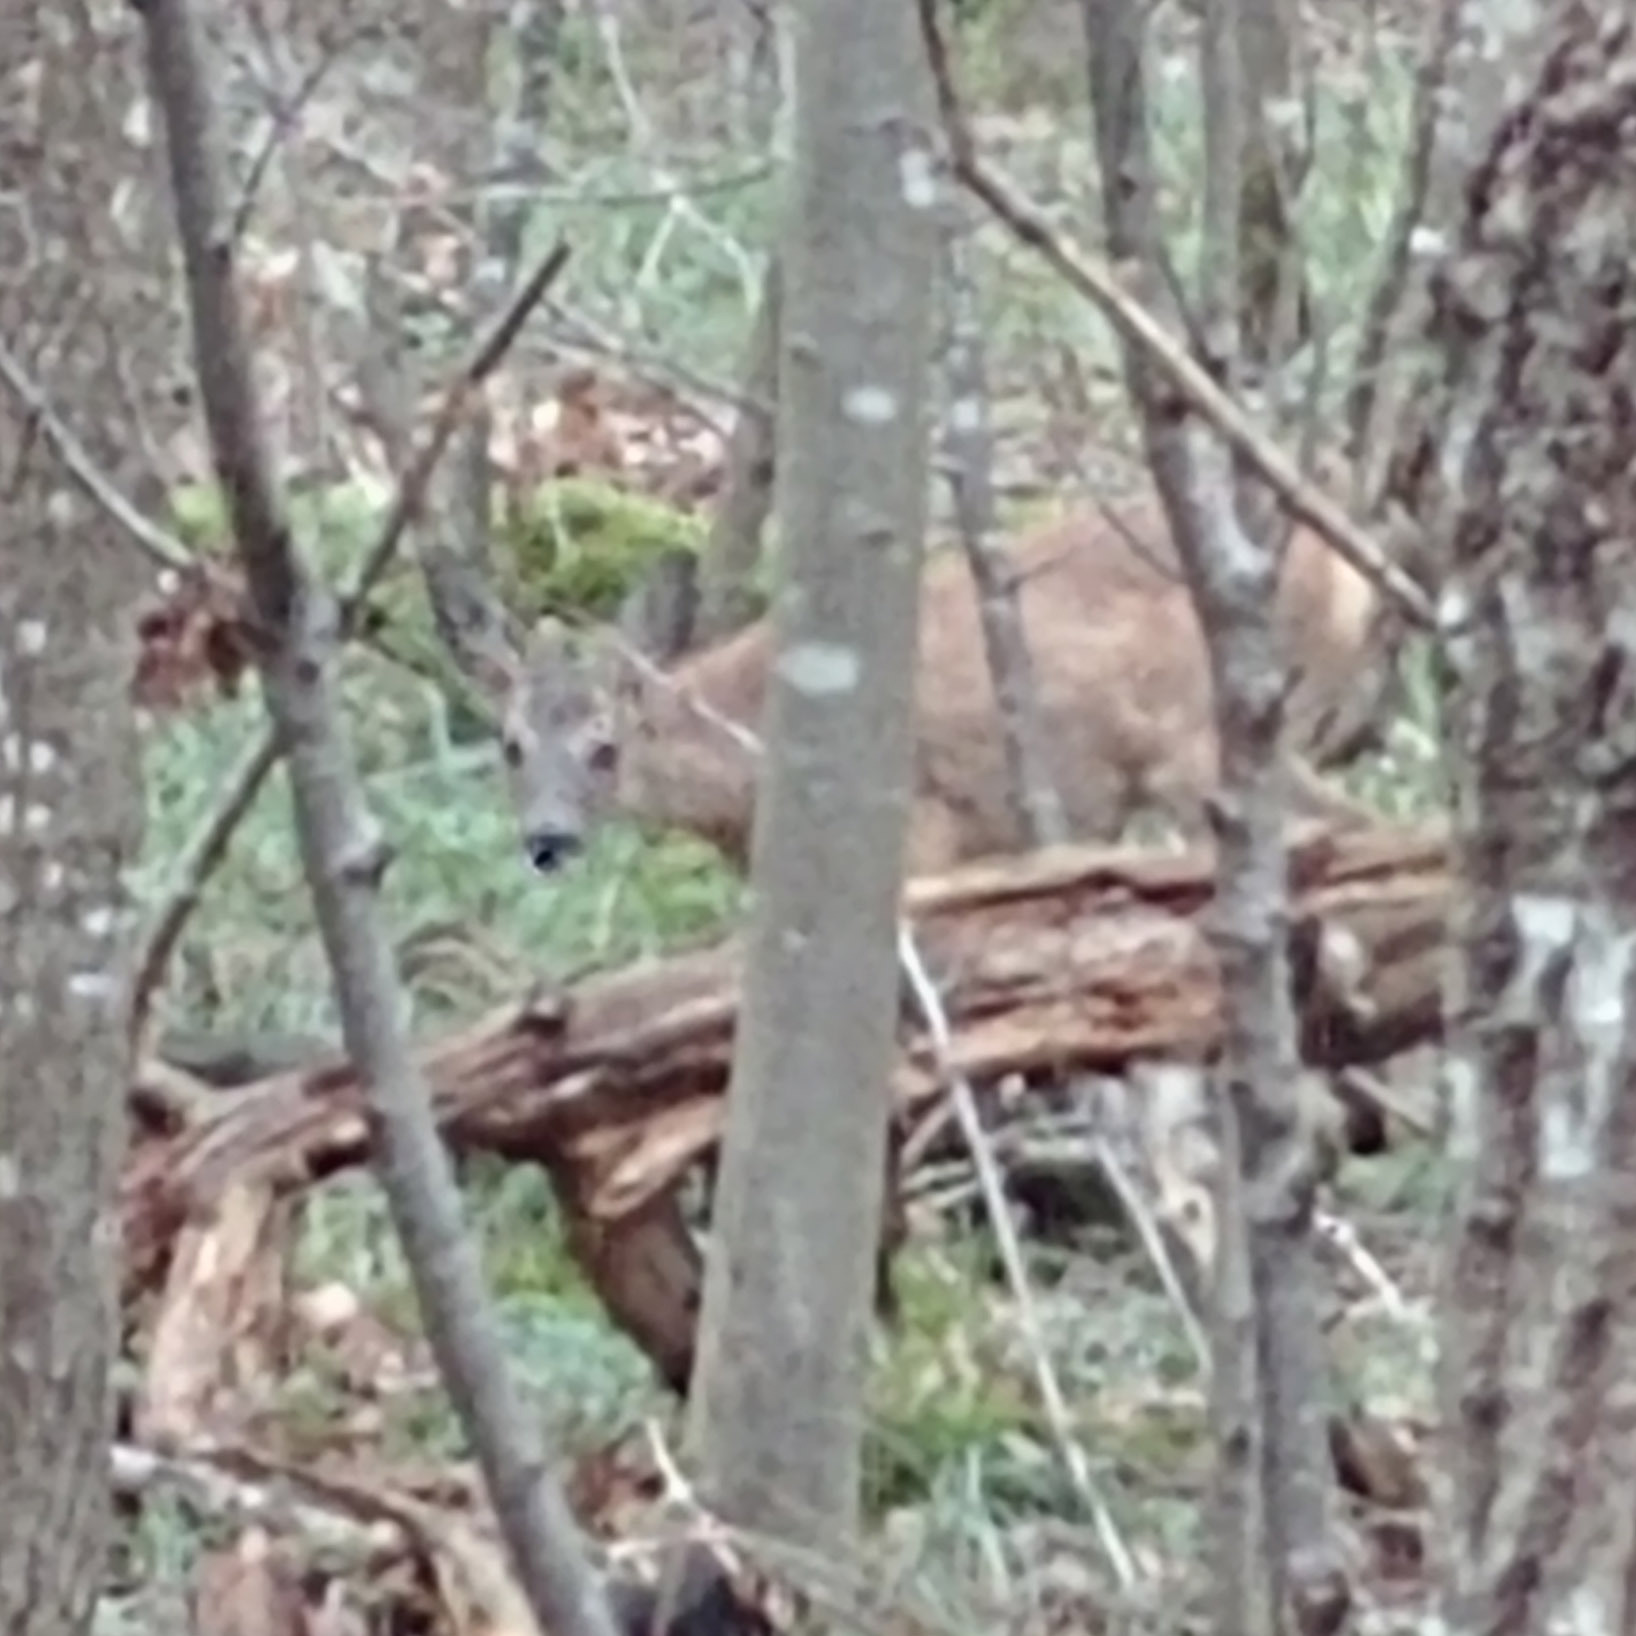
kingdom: Animalia
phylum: Chordata
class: Mammalia
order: Artiodactyla
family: Cervidae
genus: Capreolus
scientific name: Capreolus capreolus
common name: Western roe deer
